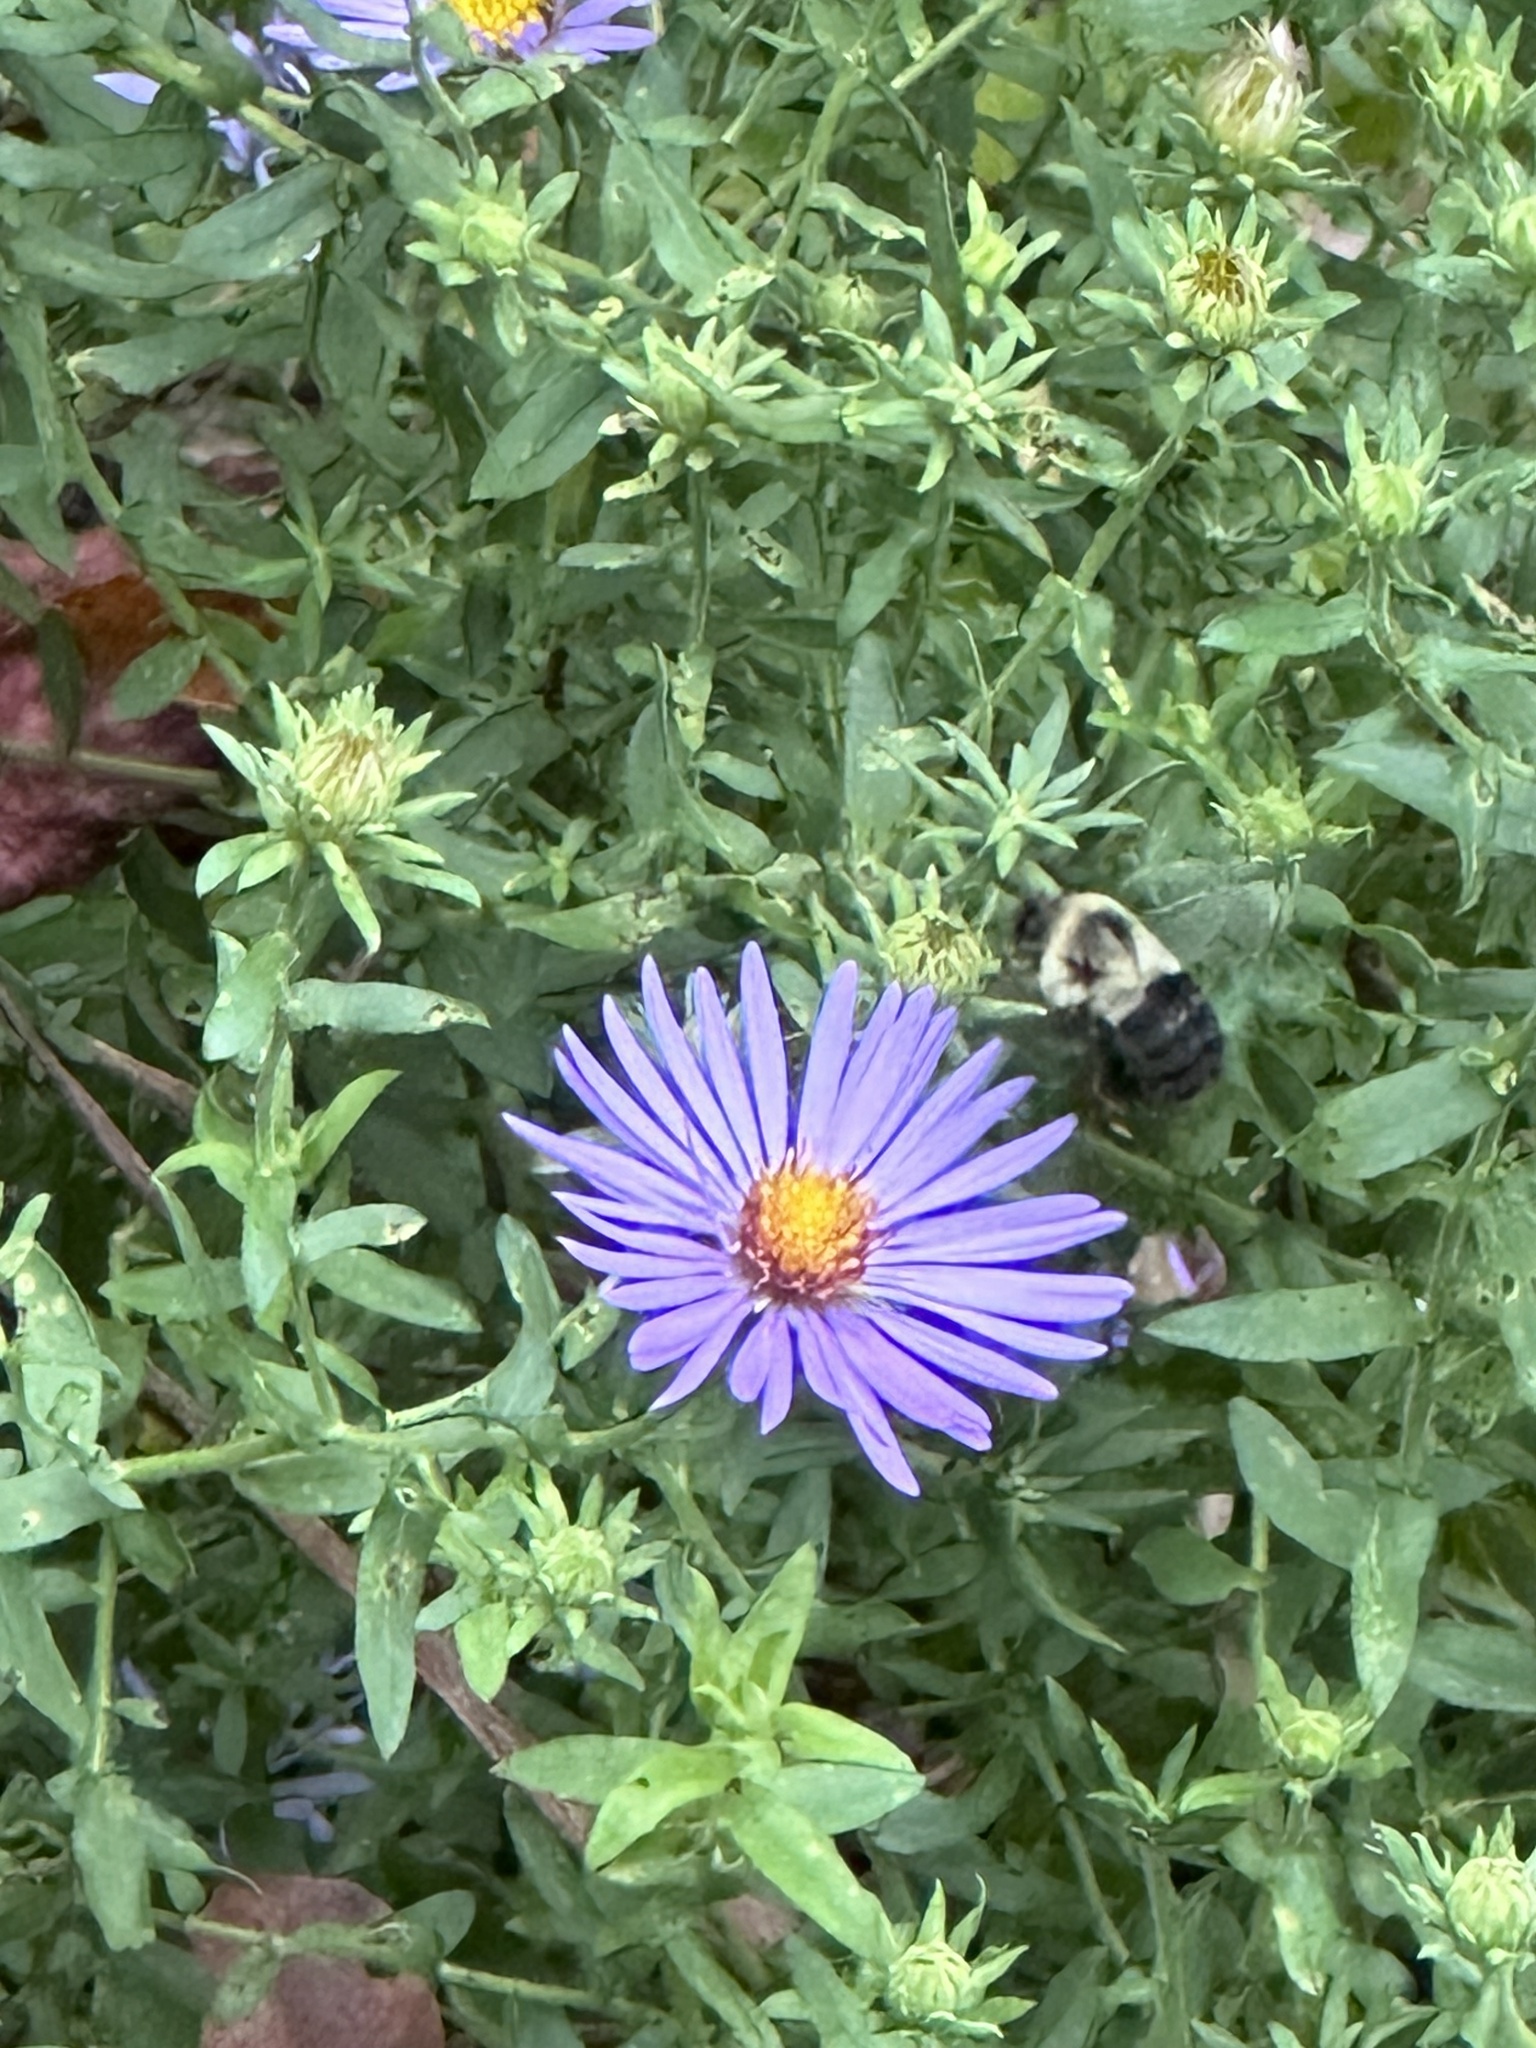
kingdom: Animalia
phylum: Arthropoda
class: Insecta
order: Hymenoptera
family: Apidae
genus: Bombus
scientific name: Bombus impatiens
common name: Common eastern bumble bee
